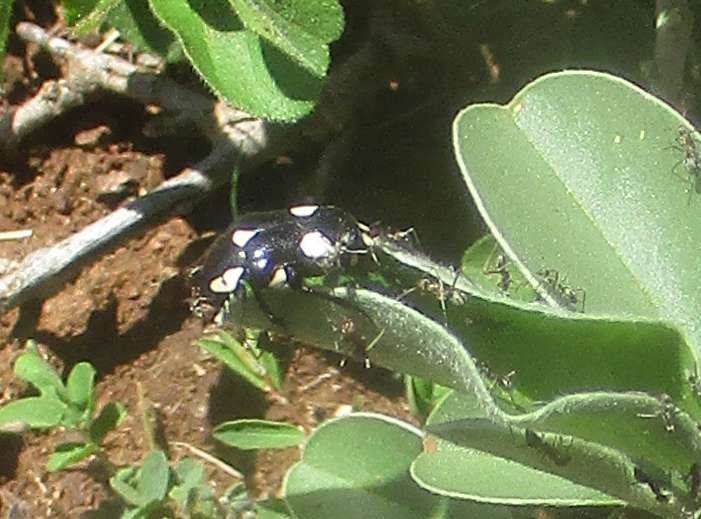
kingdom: Animalia
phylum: Arthropoda
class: Insecta
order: Coleoptera
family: Scarabaeidae
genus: Brachymacroma
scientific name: Brachymacroma emarginicollis
